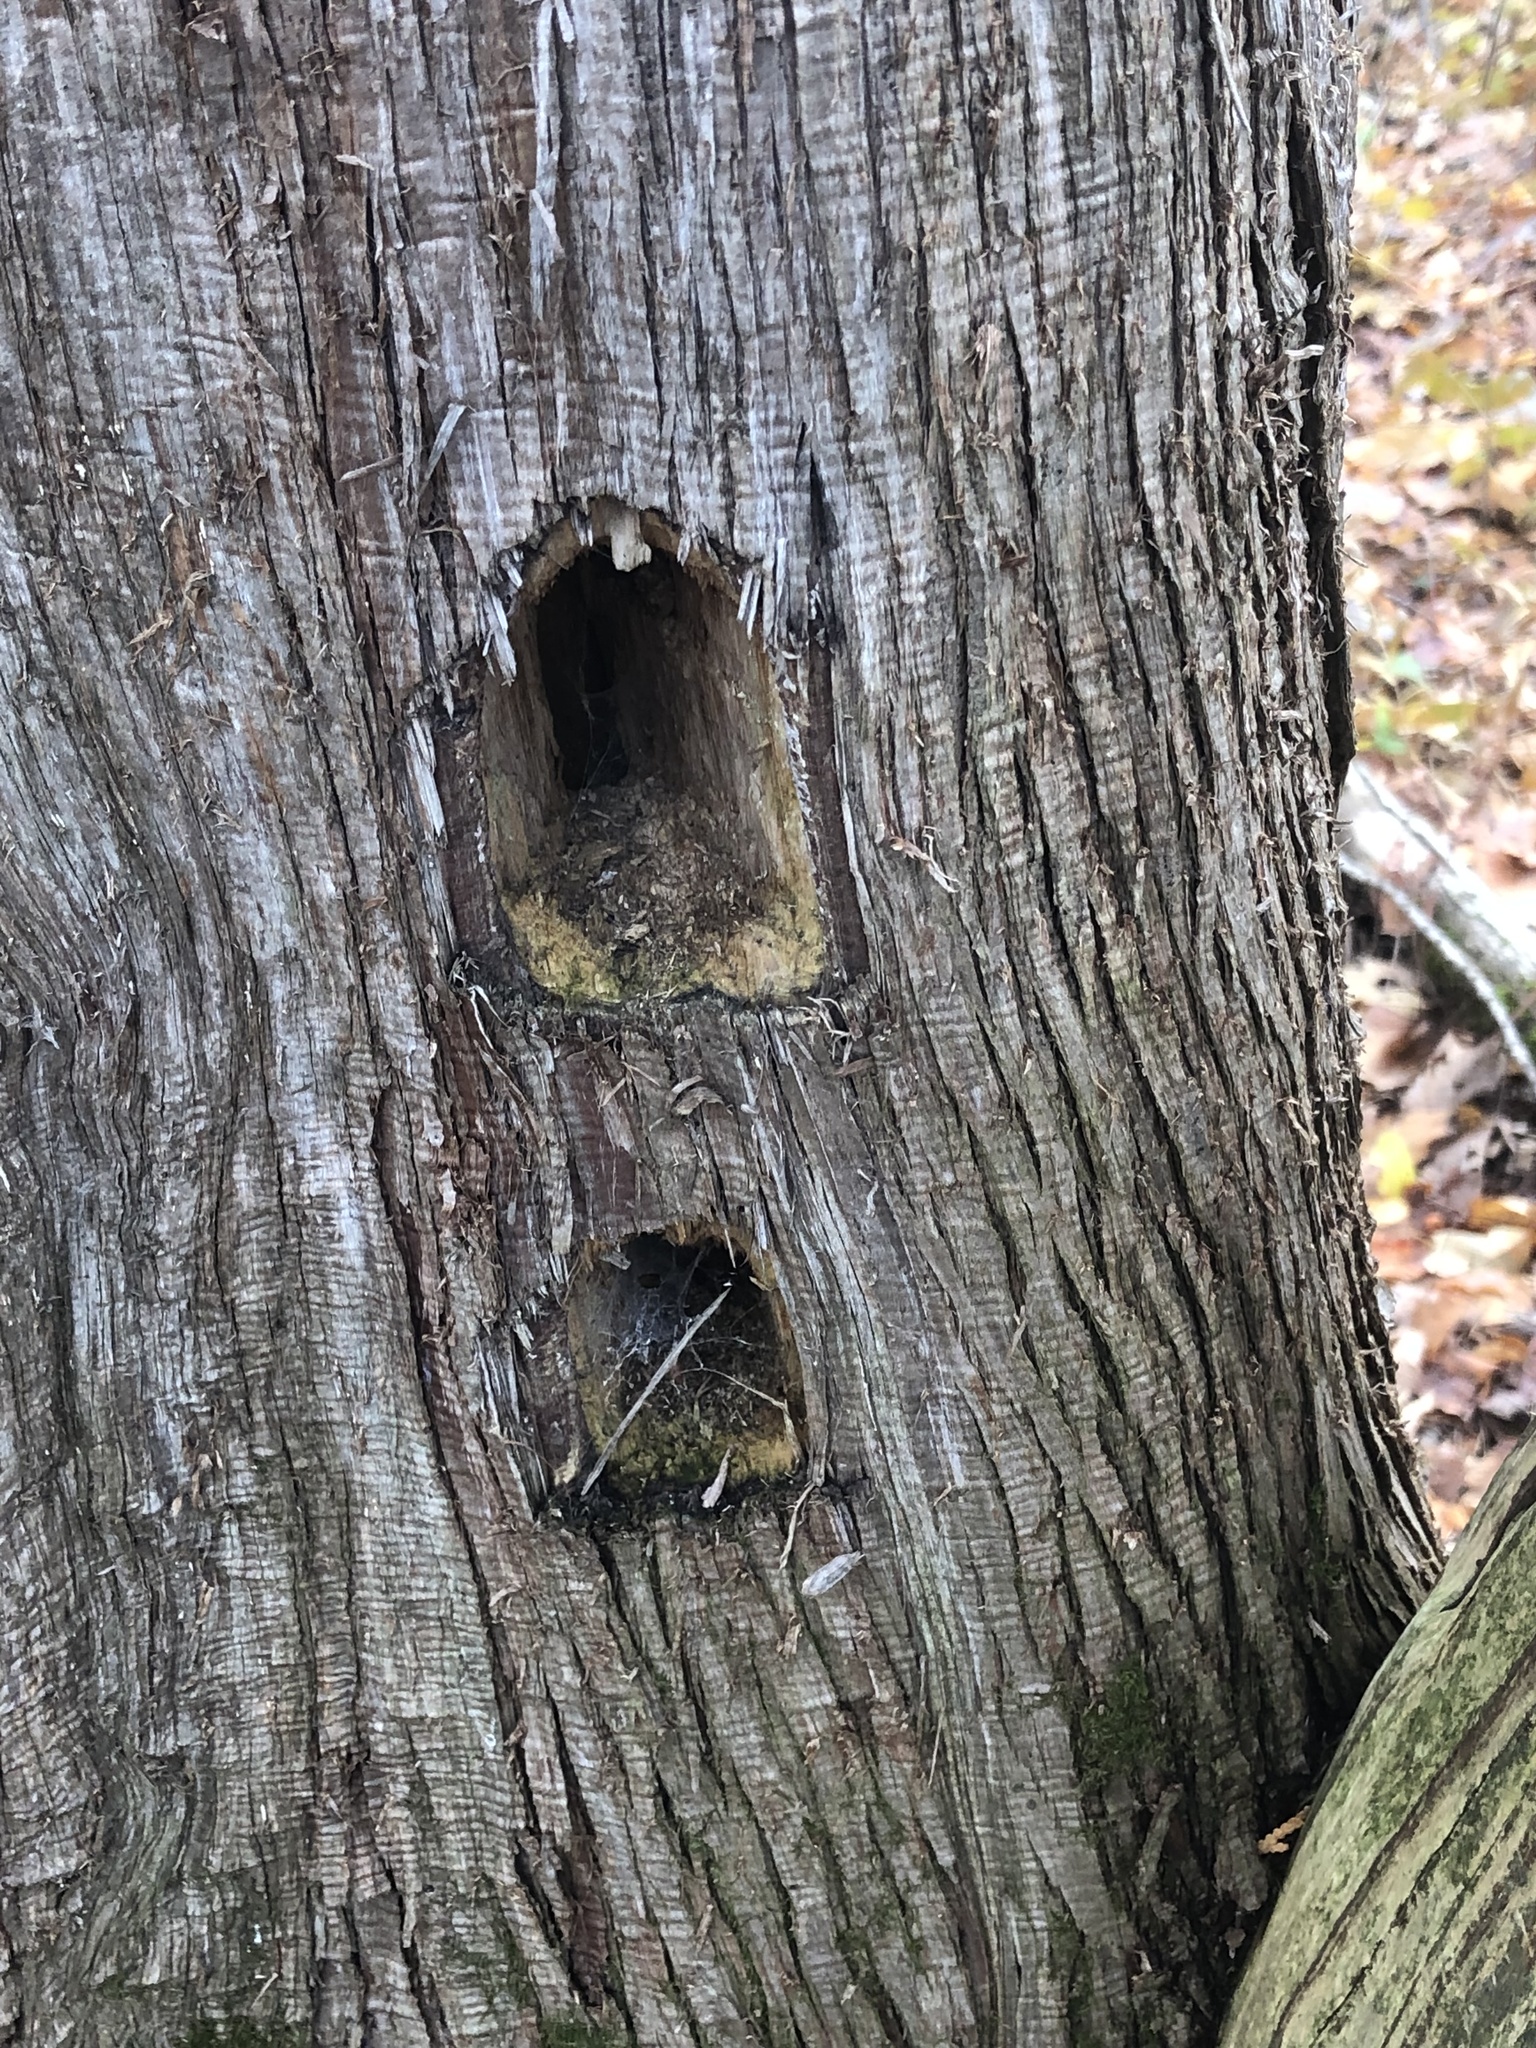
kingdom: Animalia
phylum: Chordata
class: Aves
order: Piciformes
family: Picidae
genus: Dryocopus
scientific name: Dryocopus pileatus
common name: Pileated woodpecker
